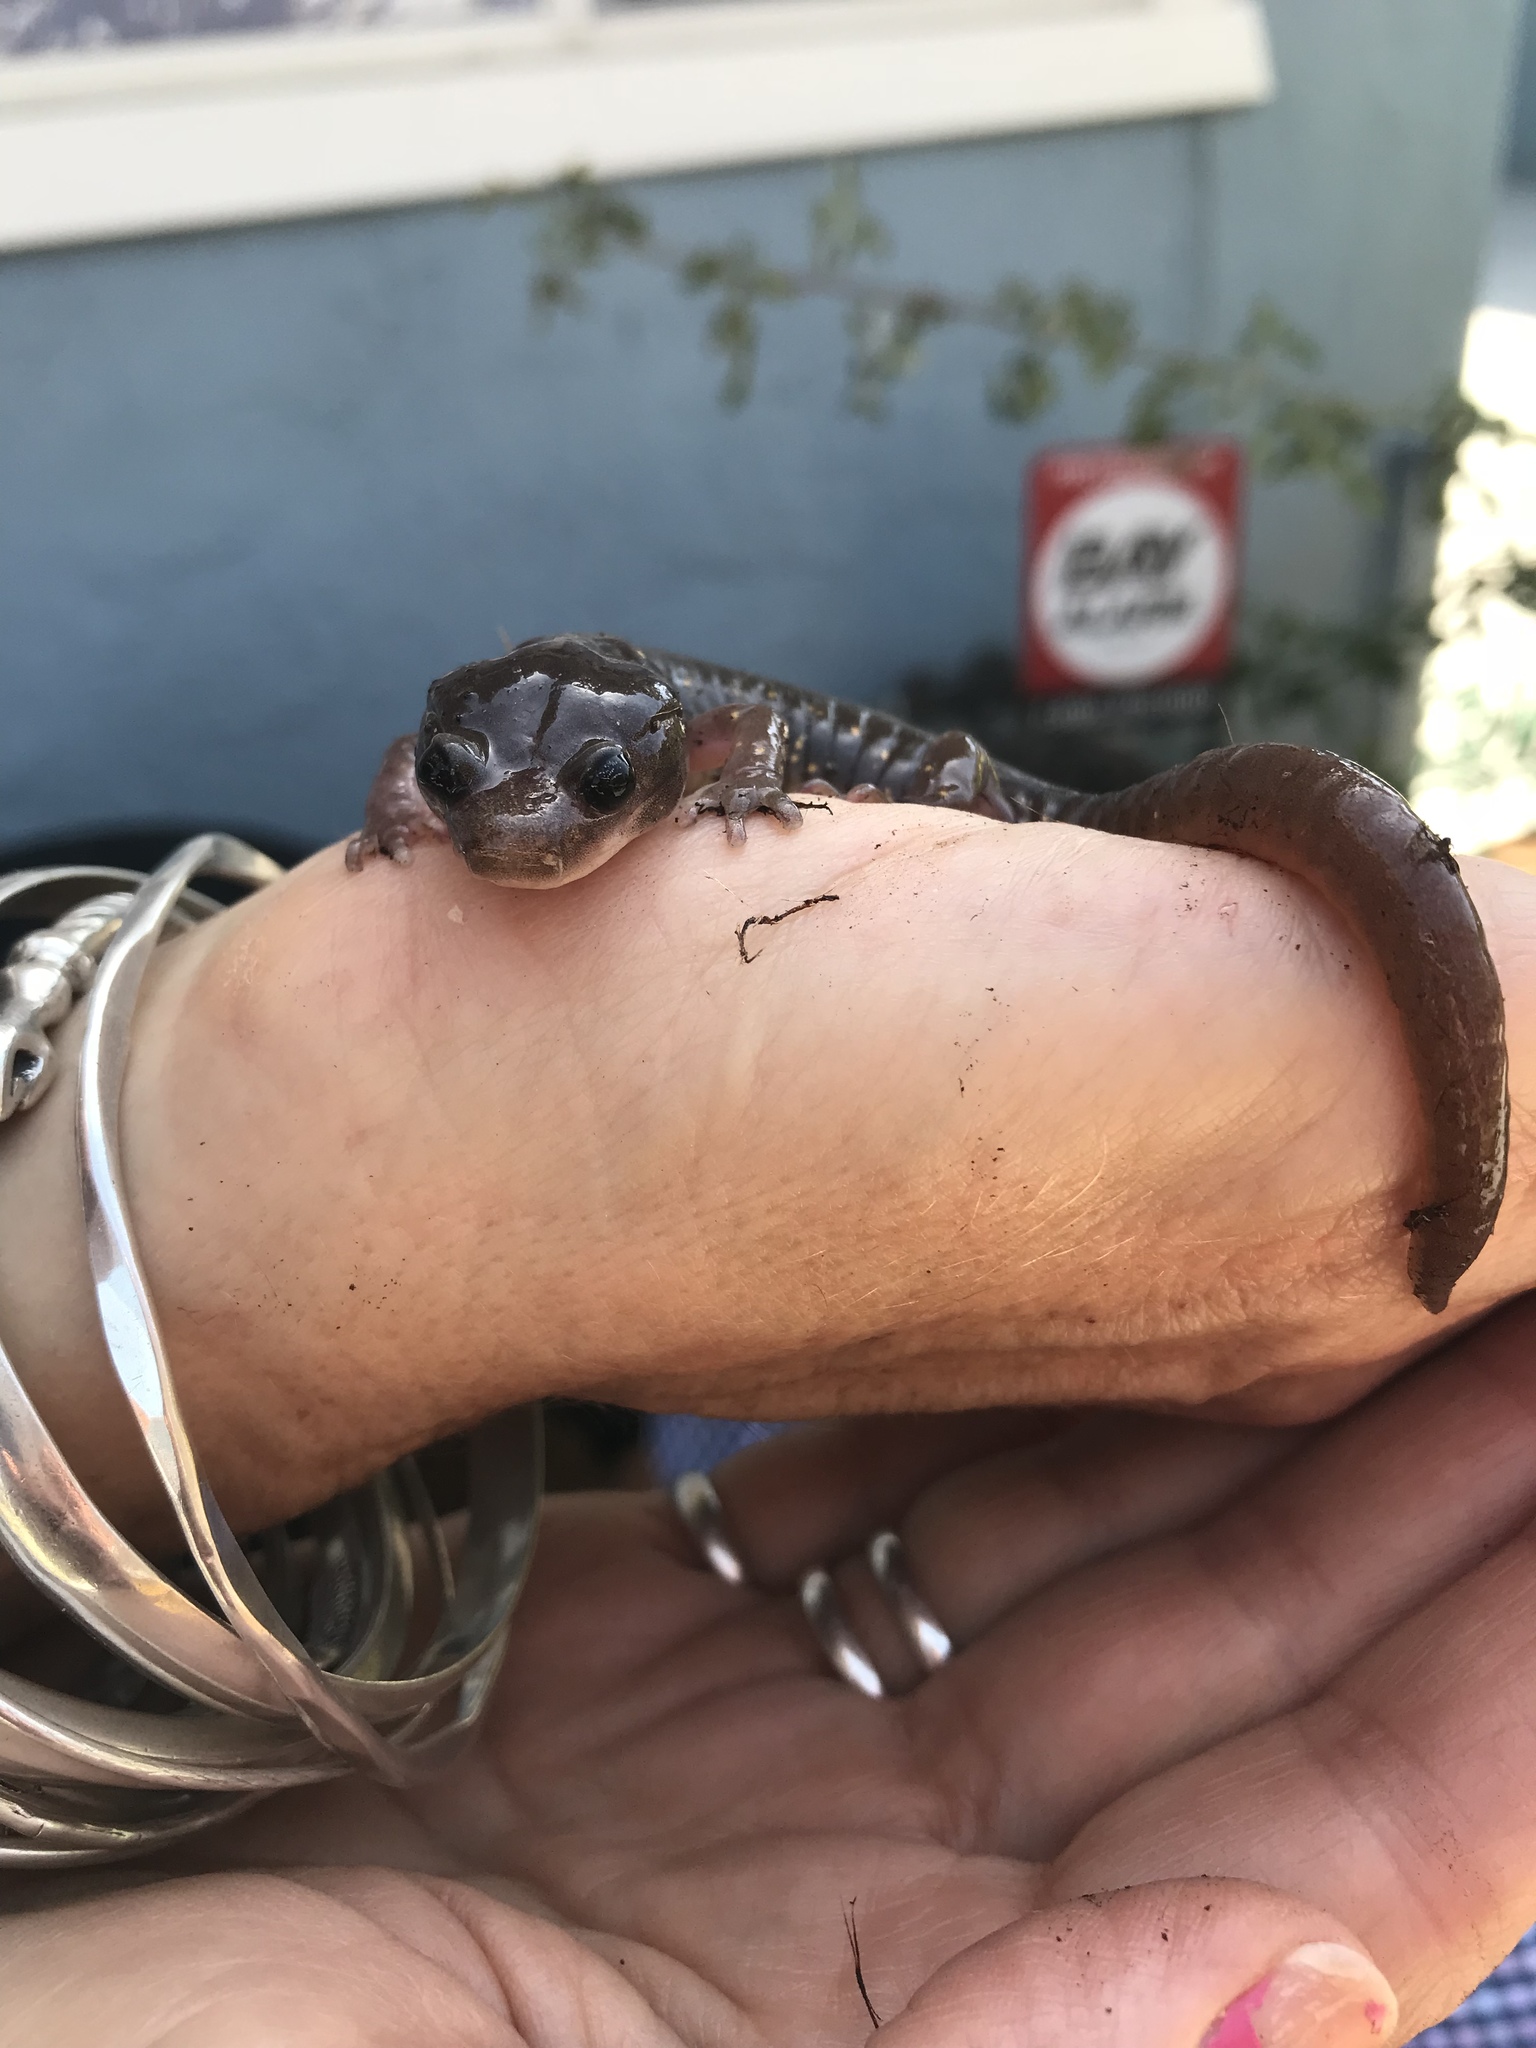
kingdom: Animalia
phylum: Chordata
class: Amphibia
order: Caudata
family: Plethodontidae
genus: Aneides
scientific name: Aneides lugubris
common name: Arboreal salamander
